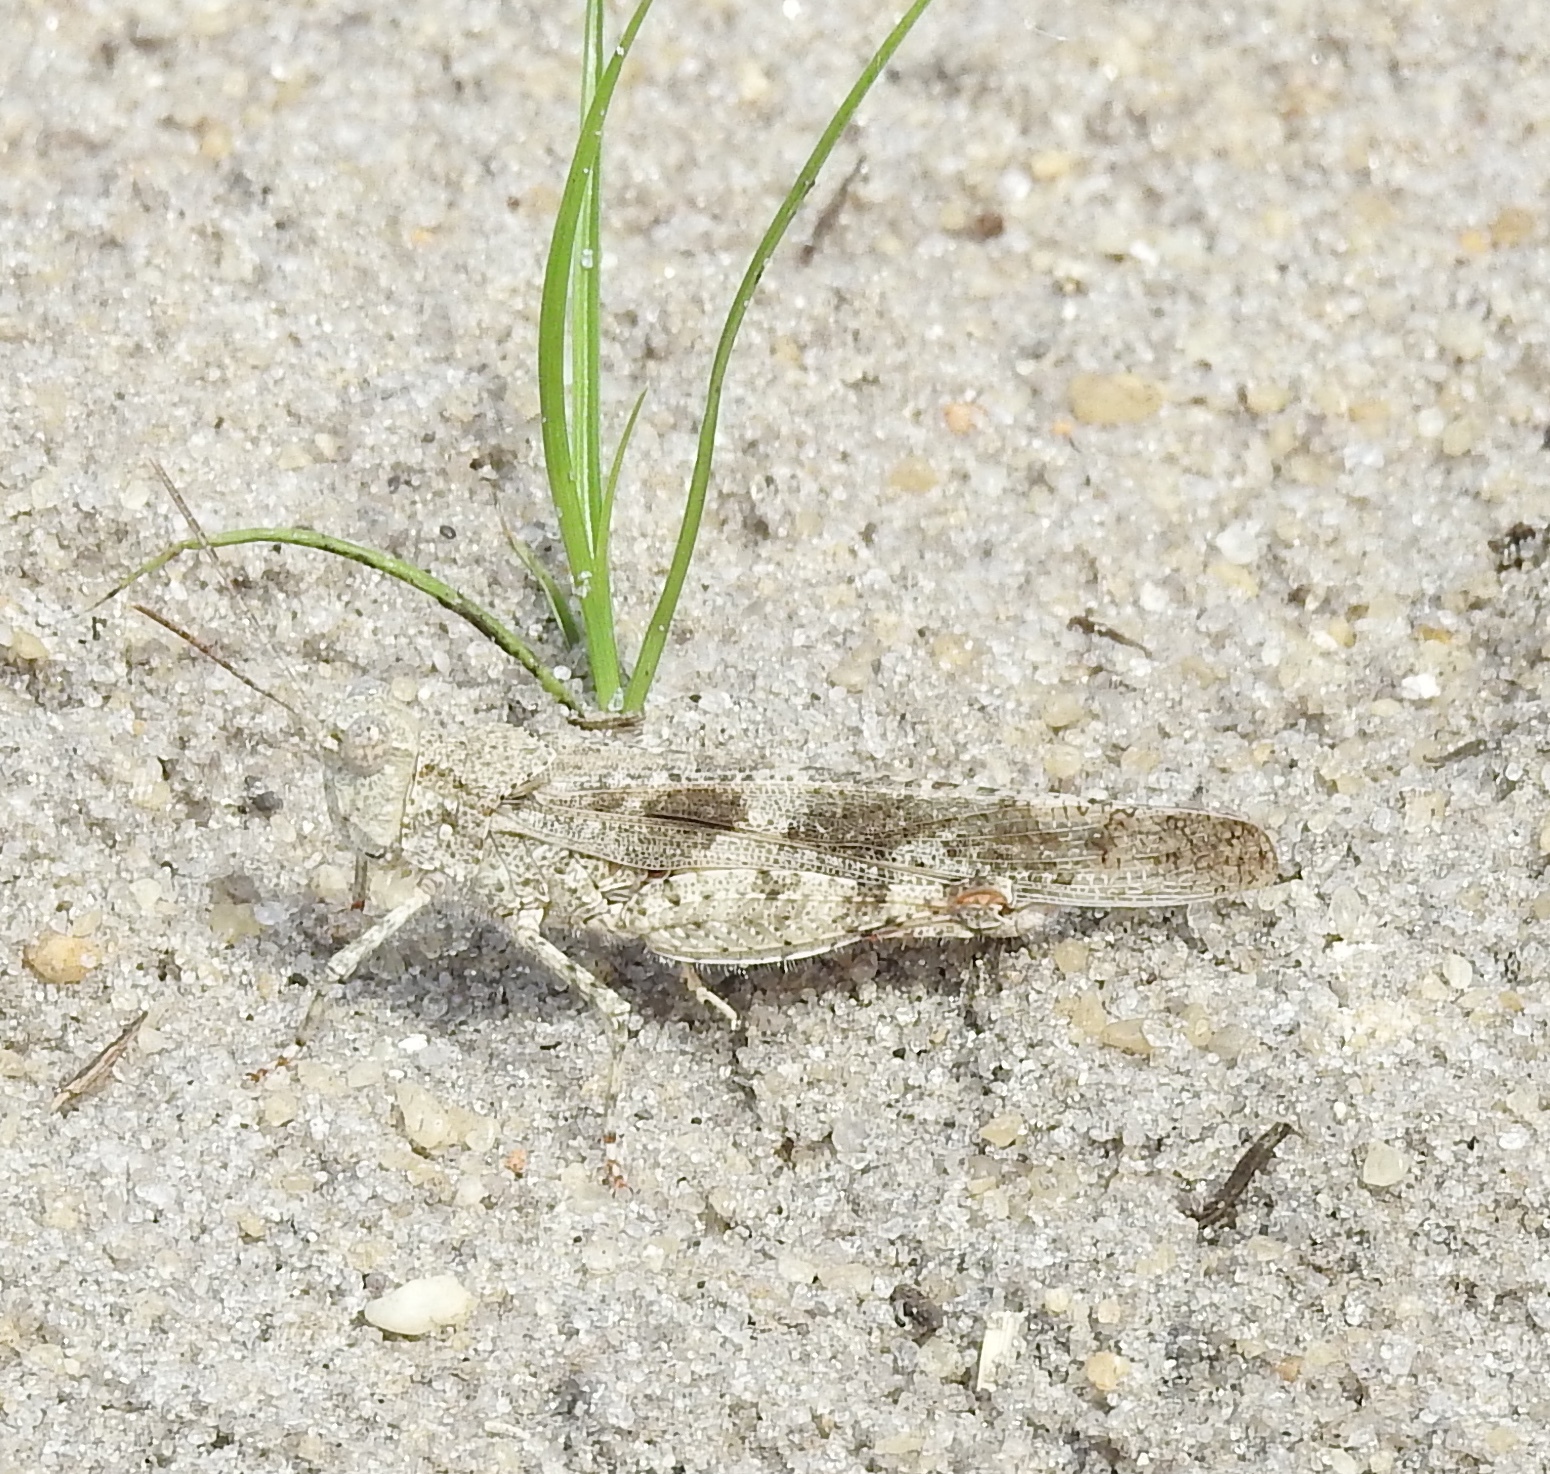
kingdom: Animalia
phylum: Arthropoda
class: Insecta
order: Orthoptera
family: Acrididae
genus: Trimerotropis
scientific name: Trimerotropis maritima
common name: Seaside locust
